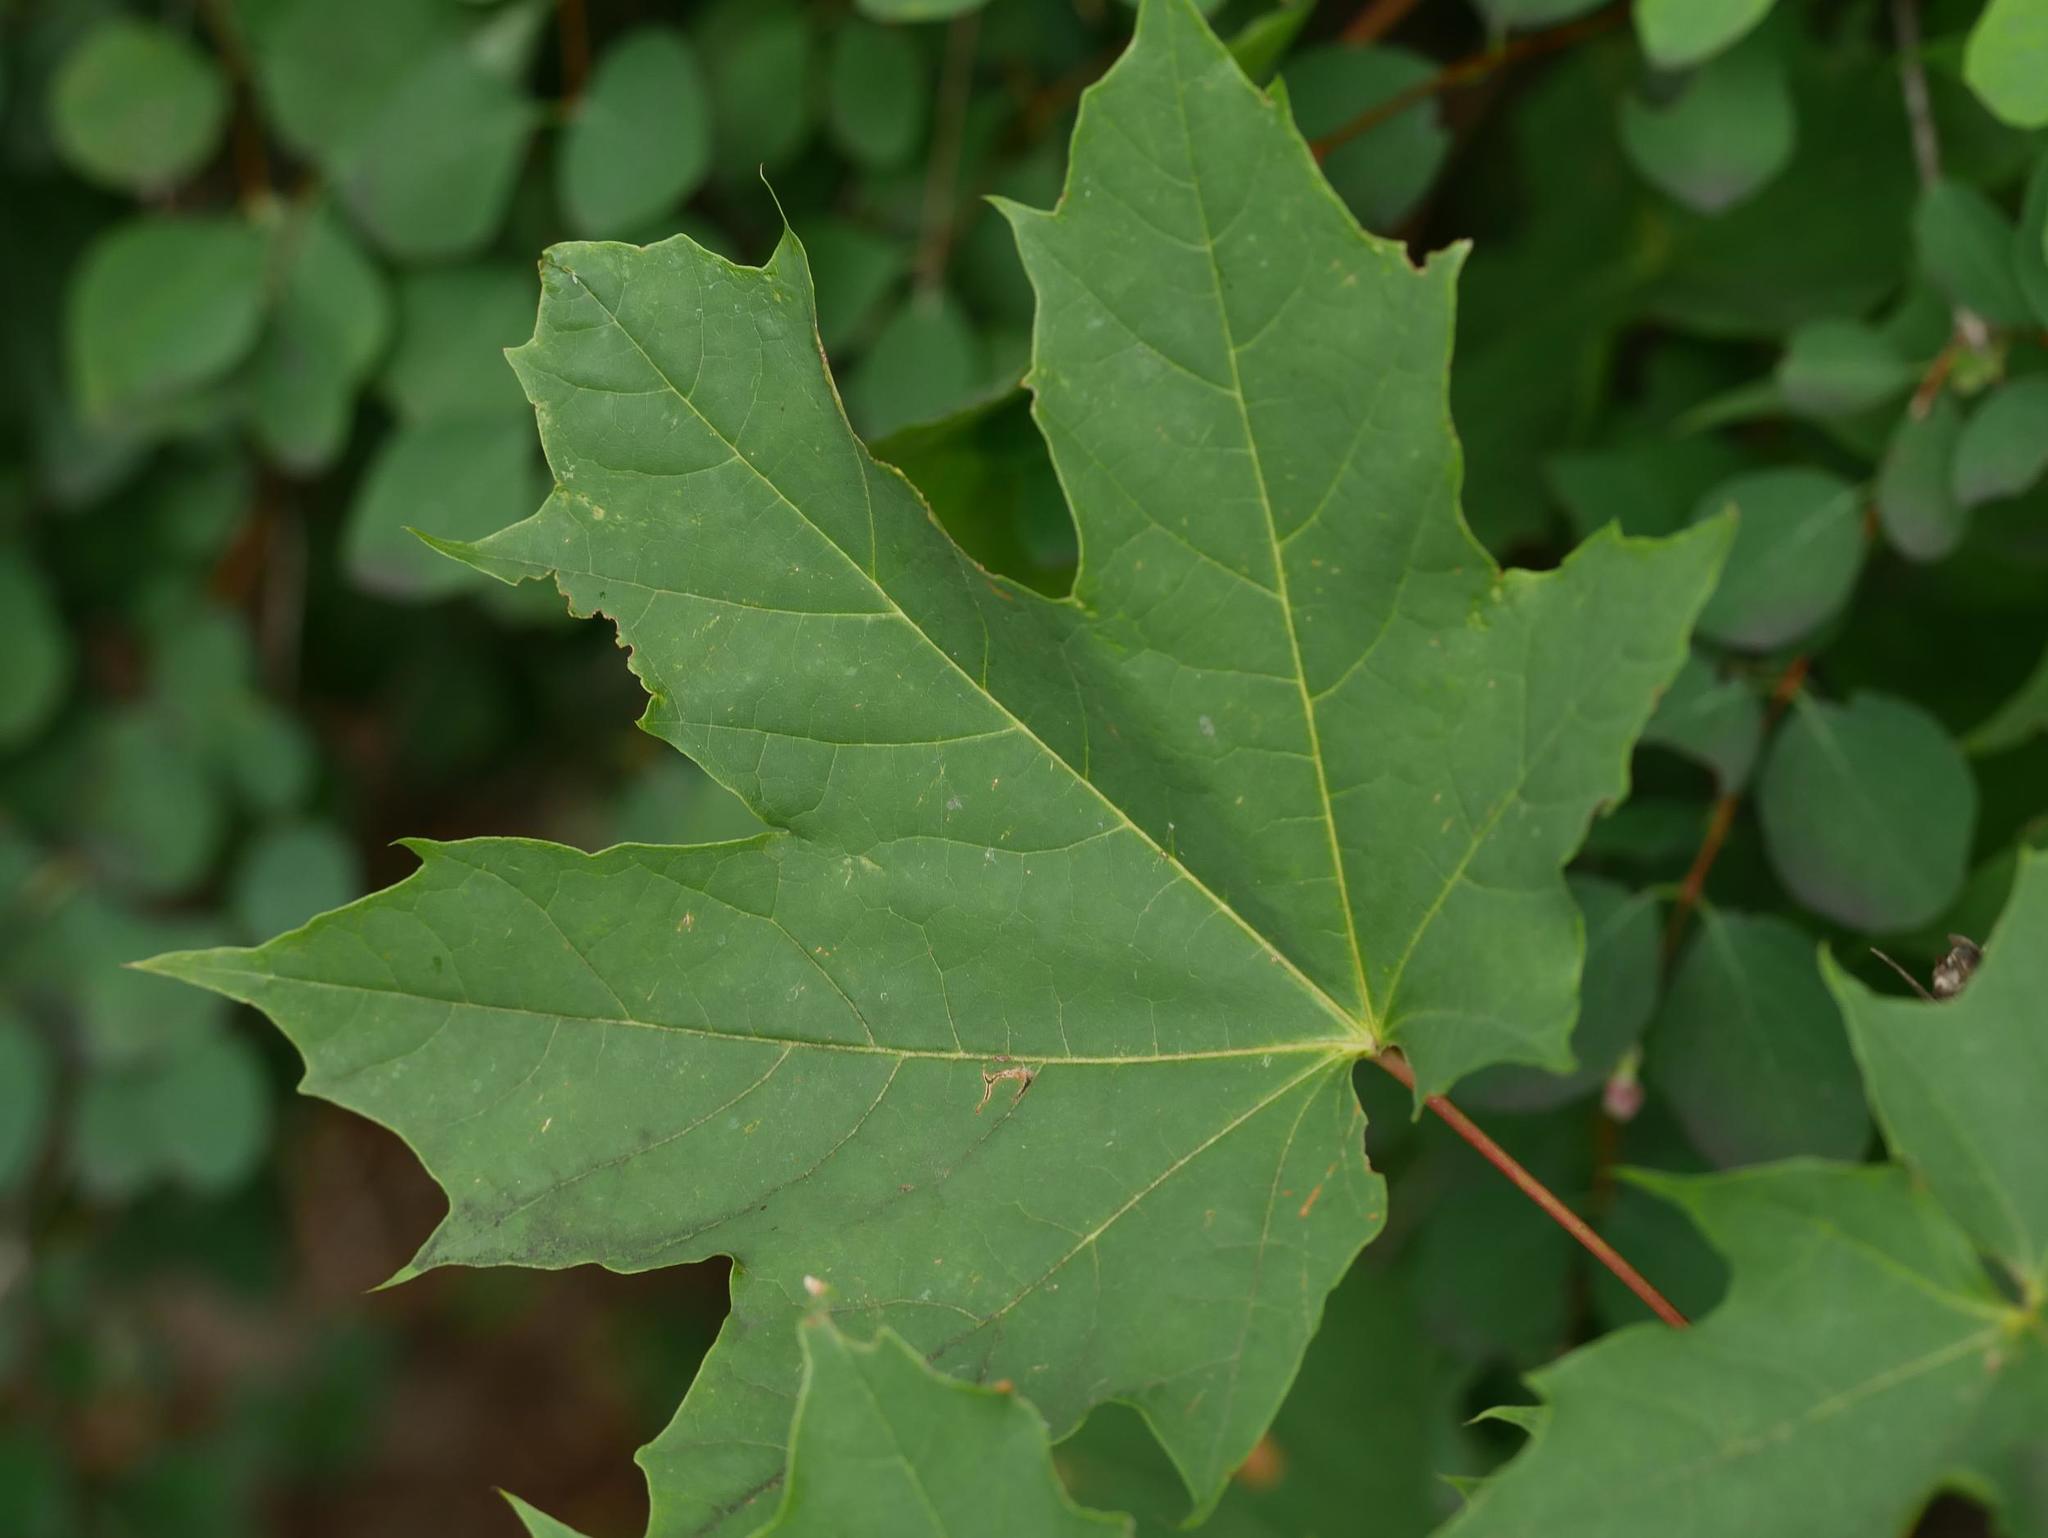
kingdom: Plantae
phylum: Tracheophyta
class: Magnoliopsida
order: Sapindales
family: Sapindaceae
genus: Acer
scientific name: Acer platanoides
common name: Norway maple
